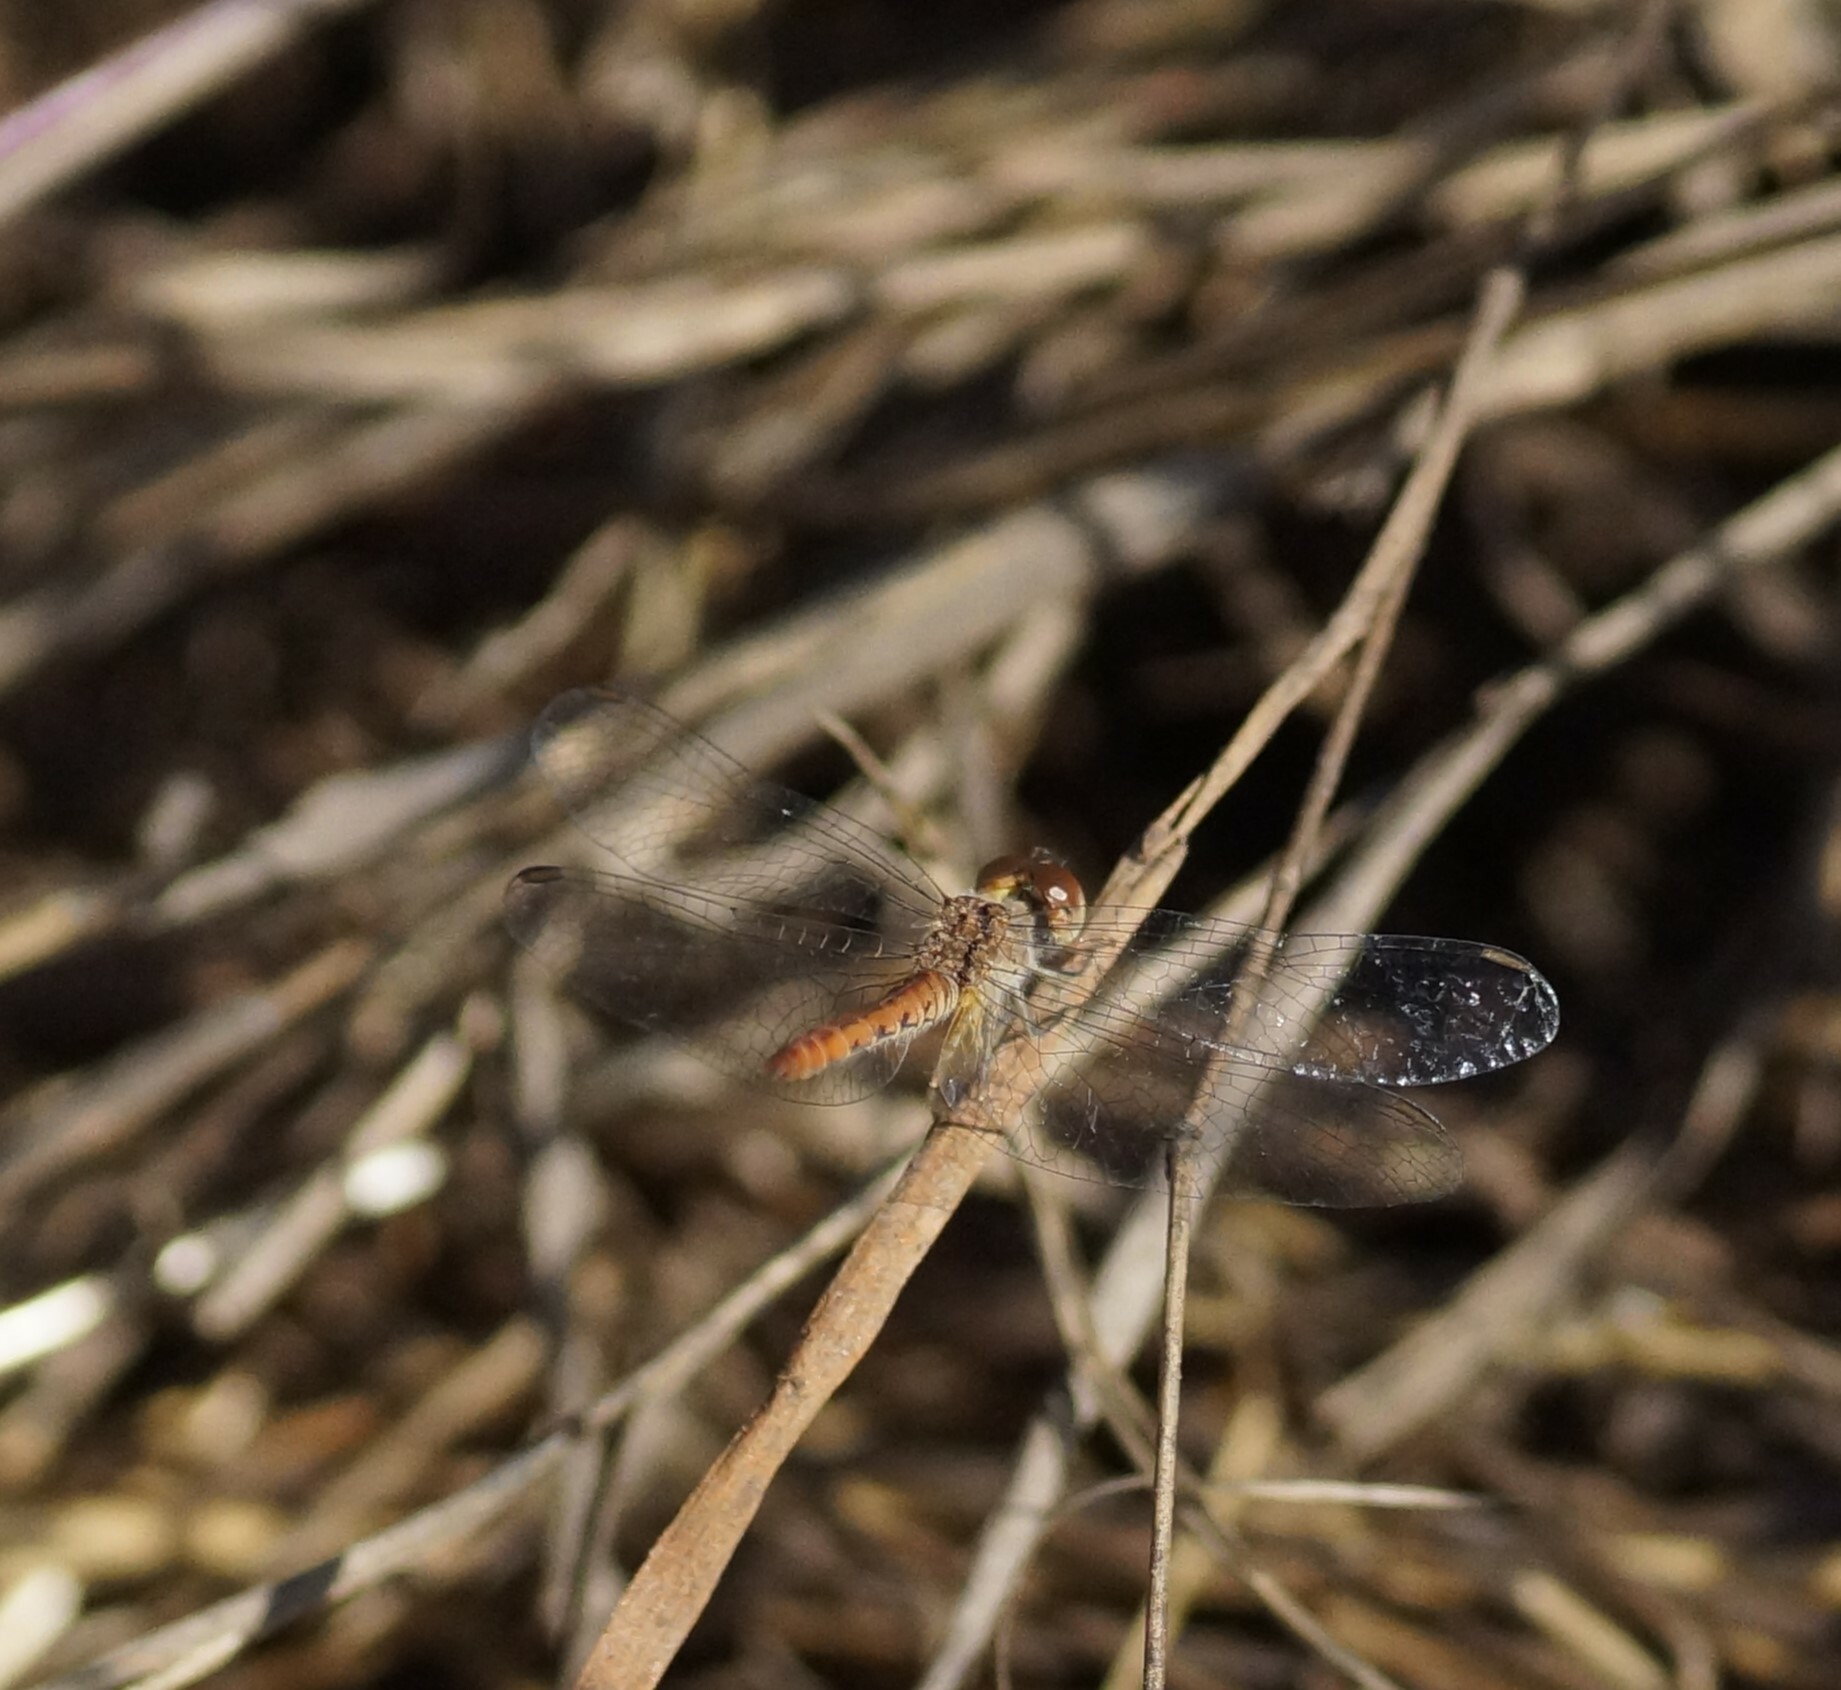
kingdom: Animalia
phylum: Arthropoda
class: Insecta
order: Odonata
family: Libellulidae
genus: Nannodiplax
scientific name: Nannodiplax rubra
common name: Pygmy percher
